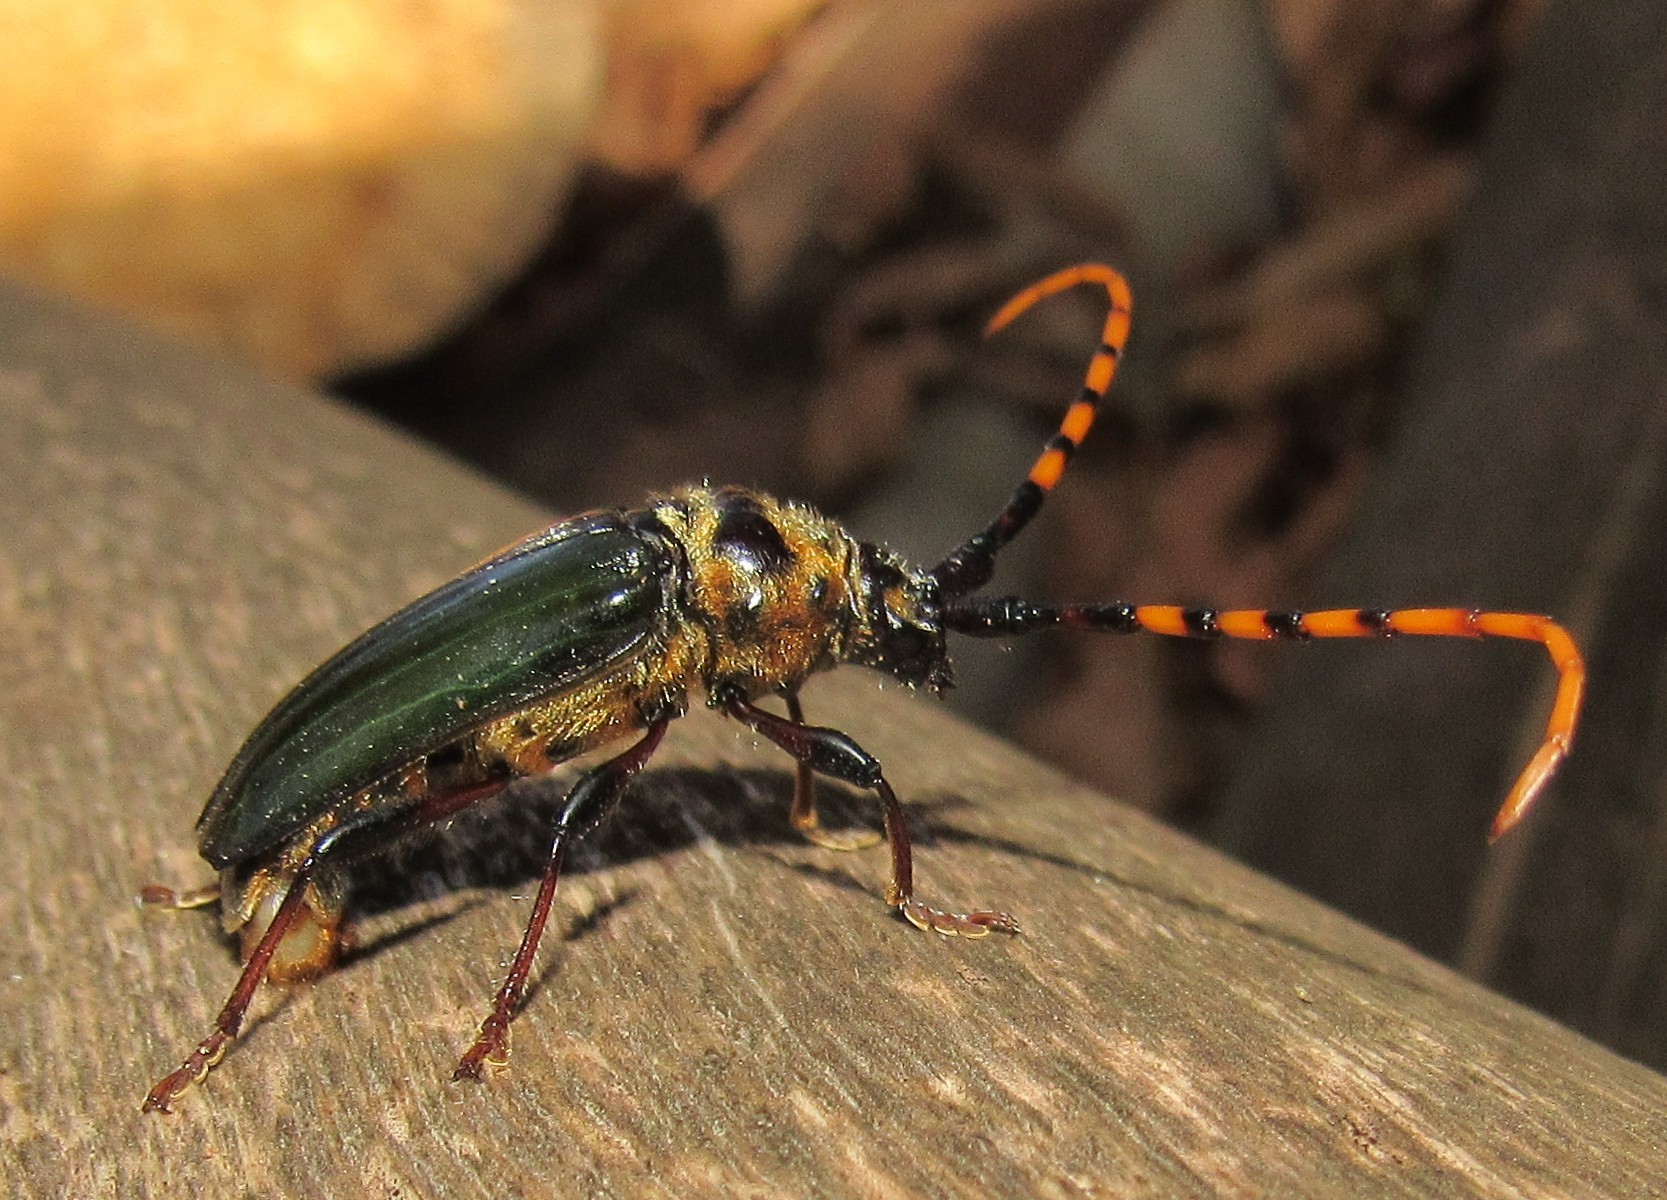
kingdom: Animalia
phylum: Arthropoda
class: Insecta
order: Coleoptera
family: Cerambycidae
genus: Retrachydes
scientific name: Retrachydes thoracicus
